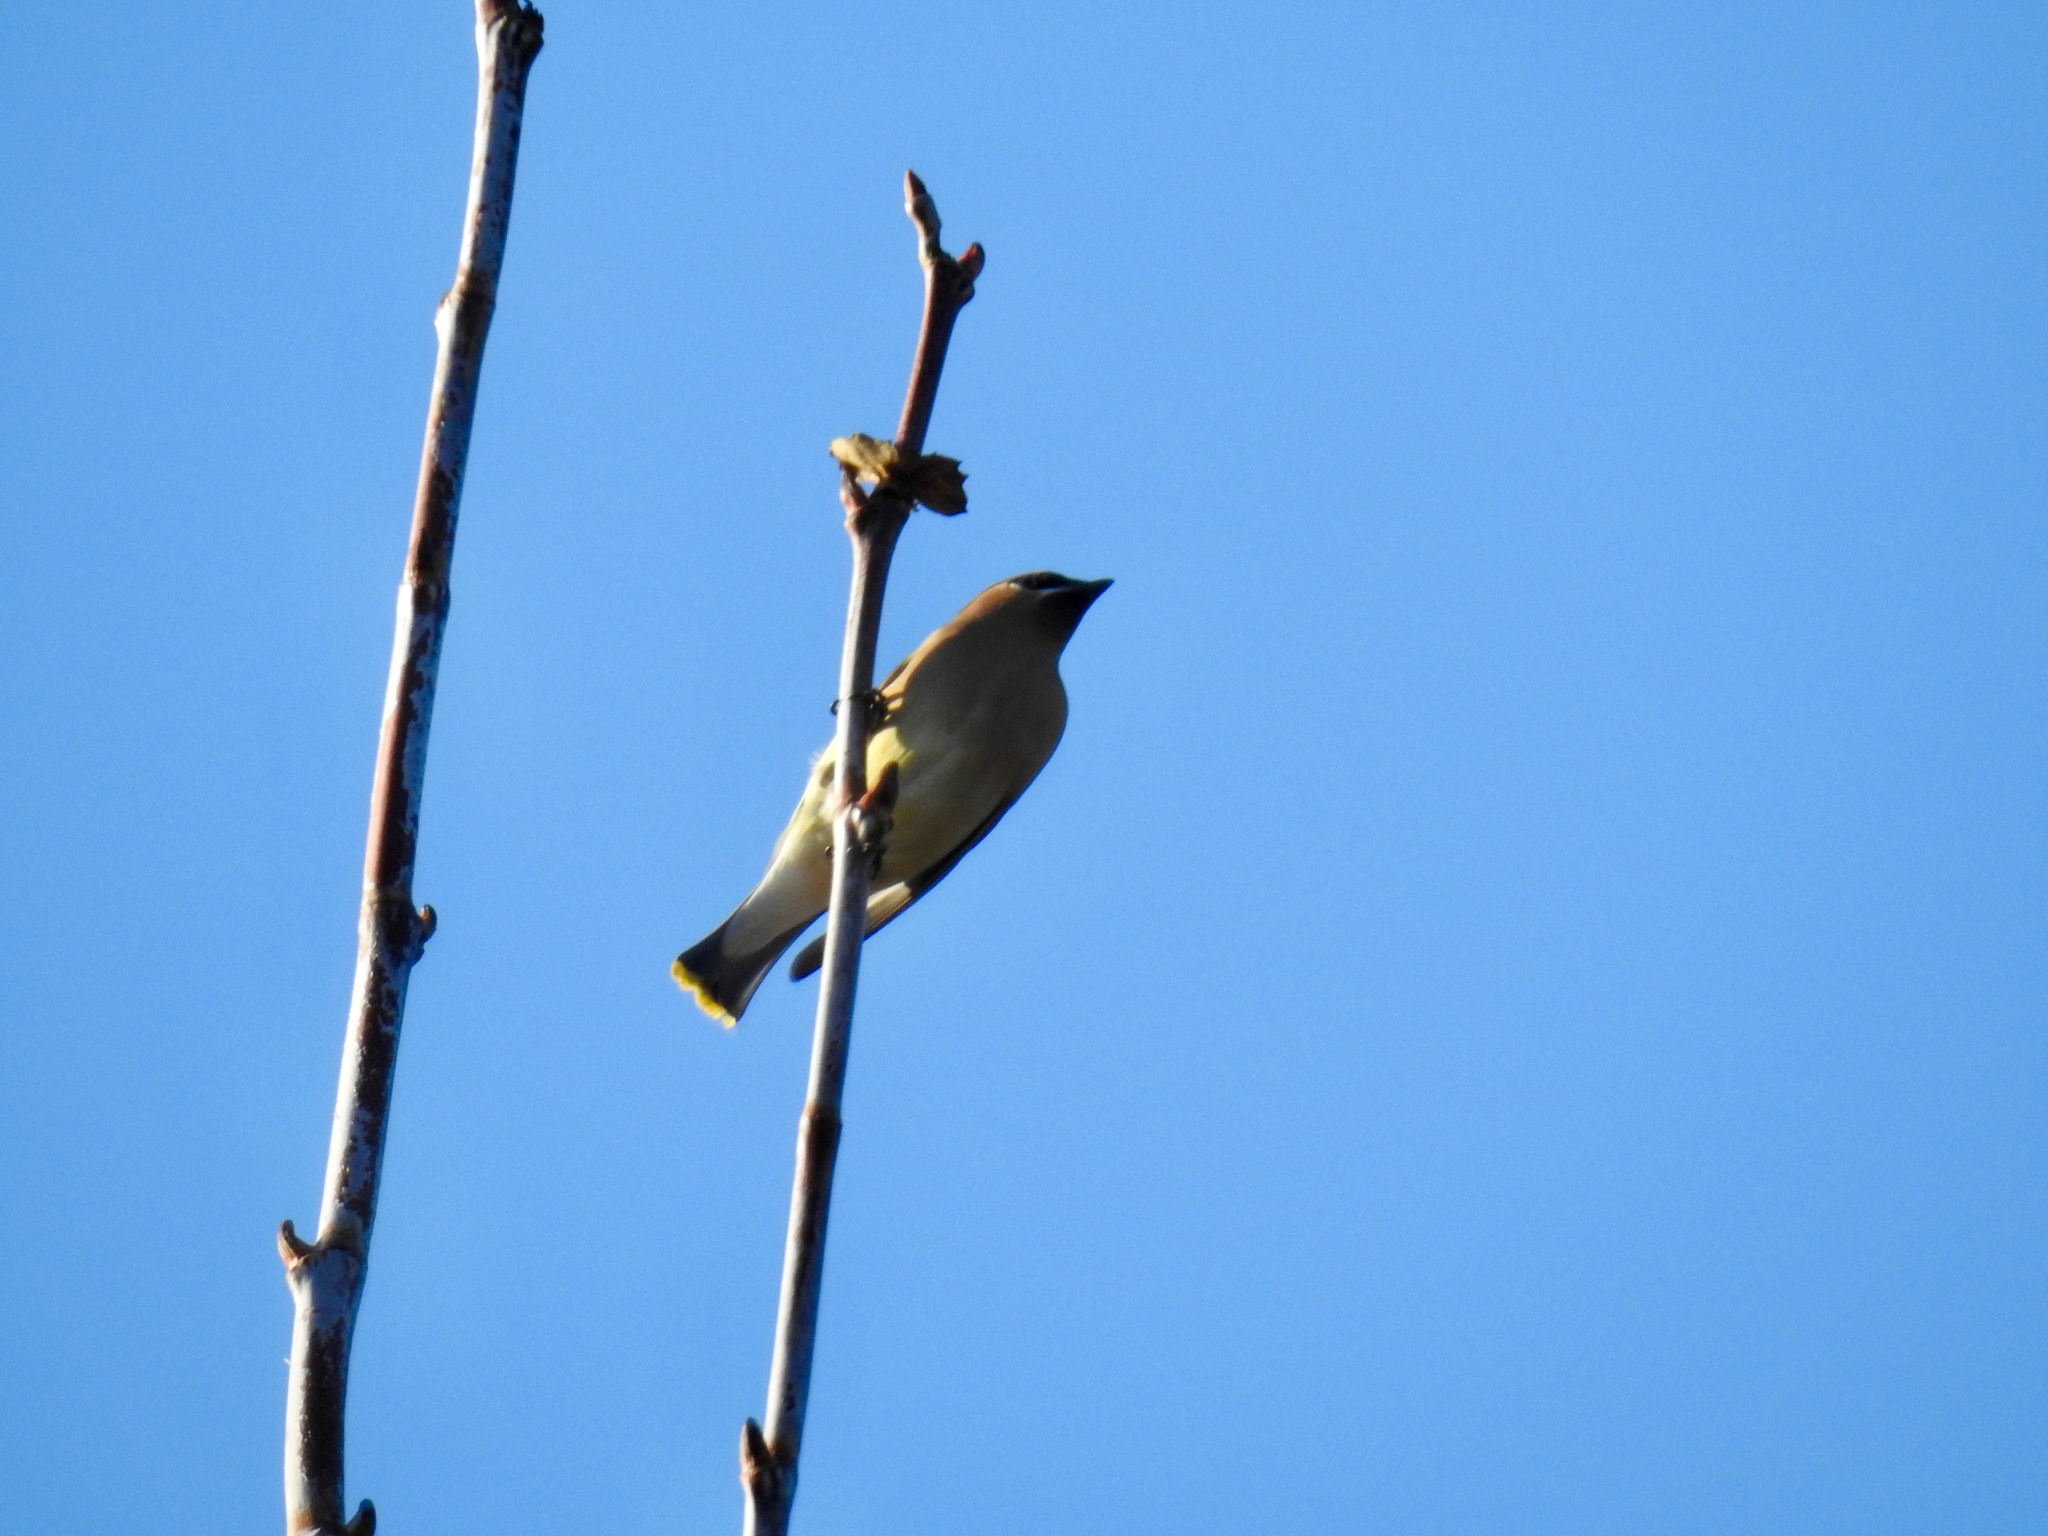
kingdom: Animalia
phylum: Chordata
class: Aves
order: Passeriformes
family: Bombycillidae
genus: Bombycilla
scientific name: Bombycilla cedrorum
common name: Cedar waxwing
